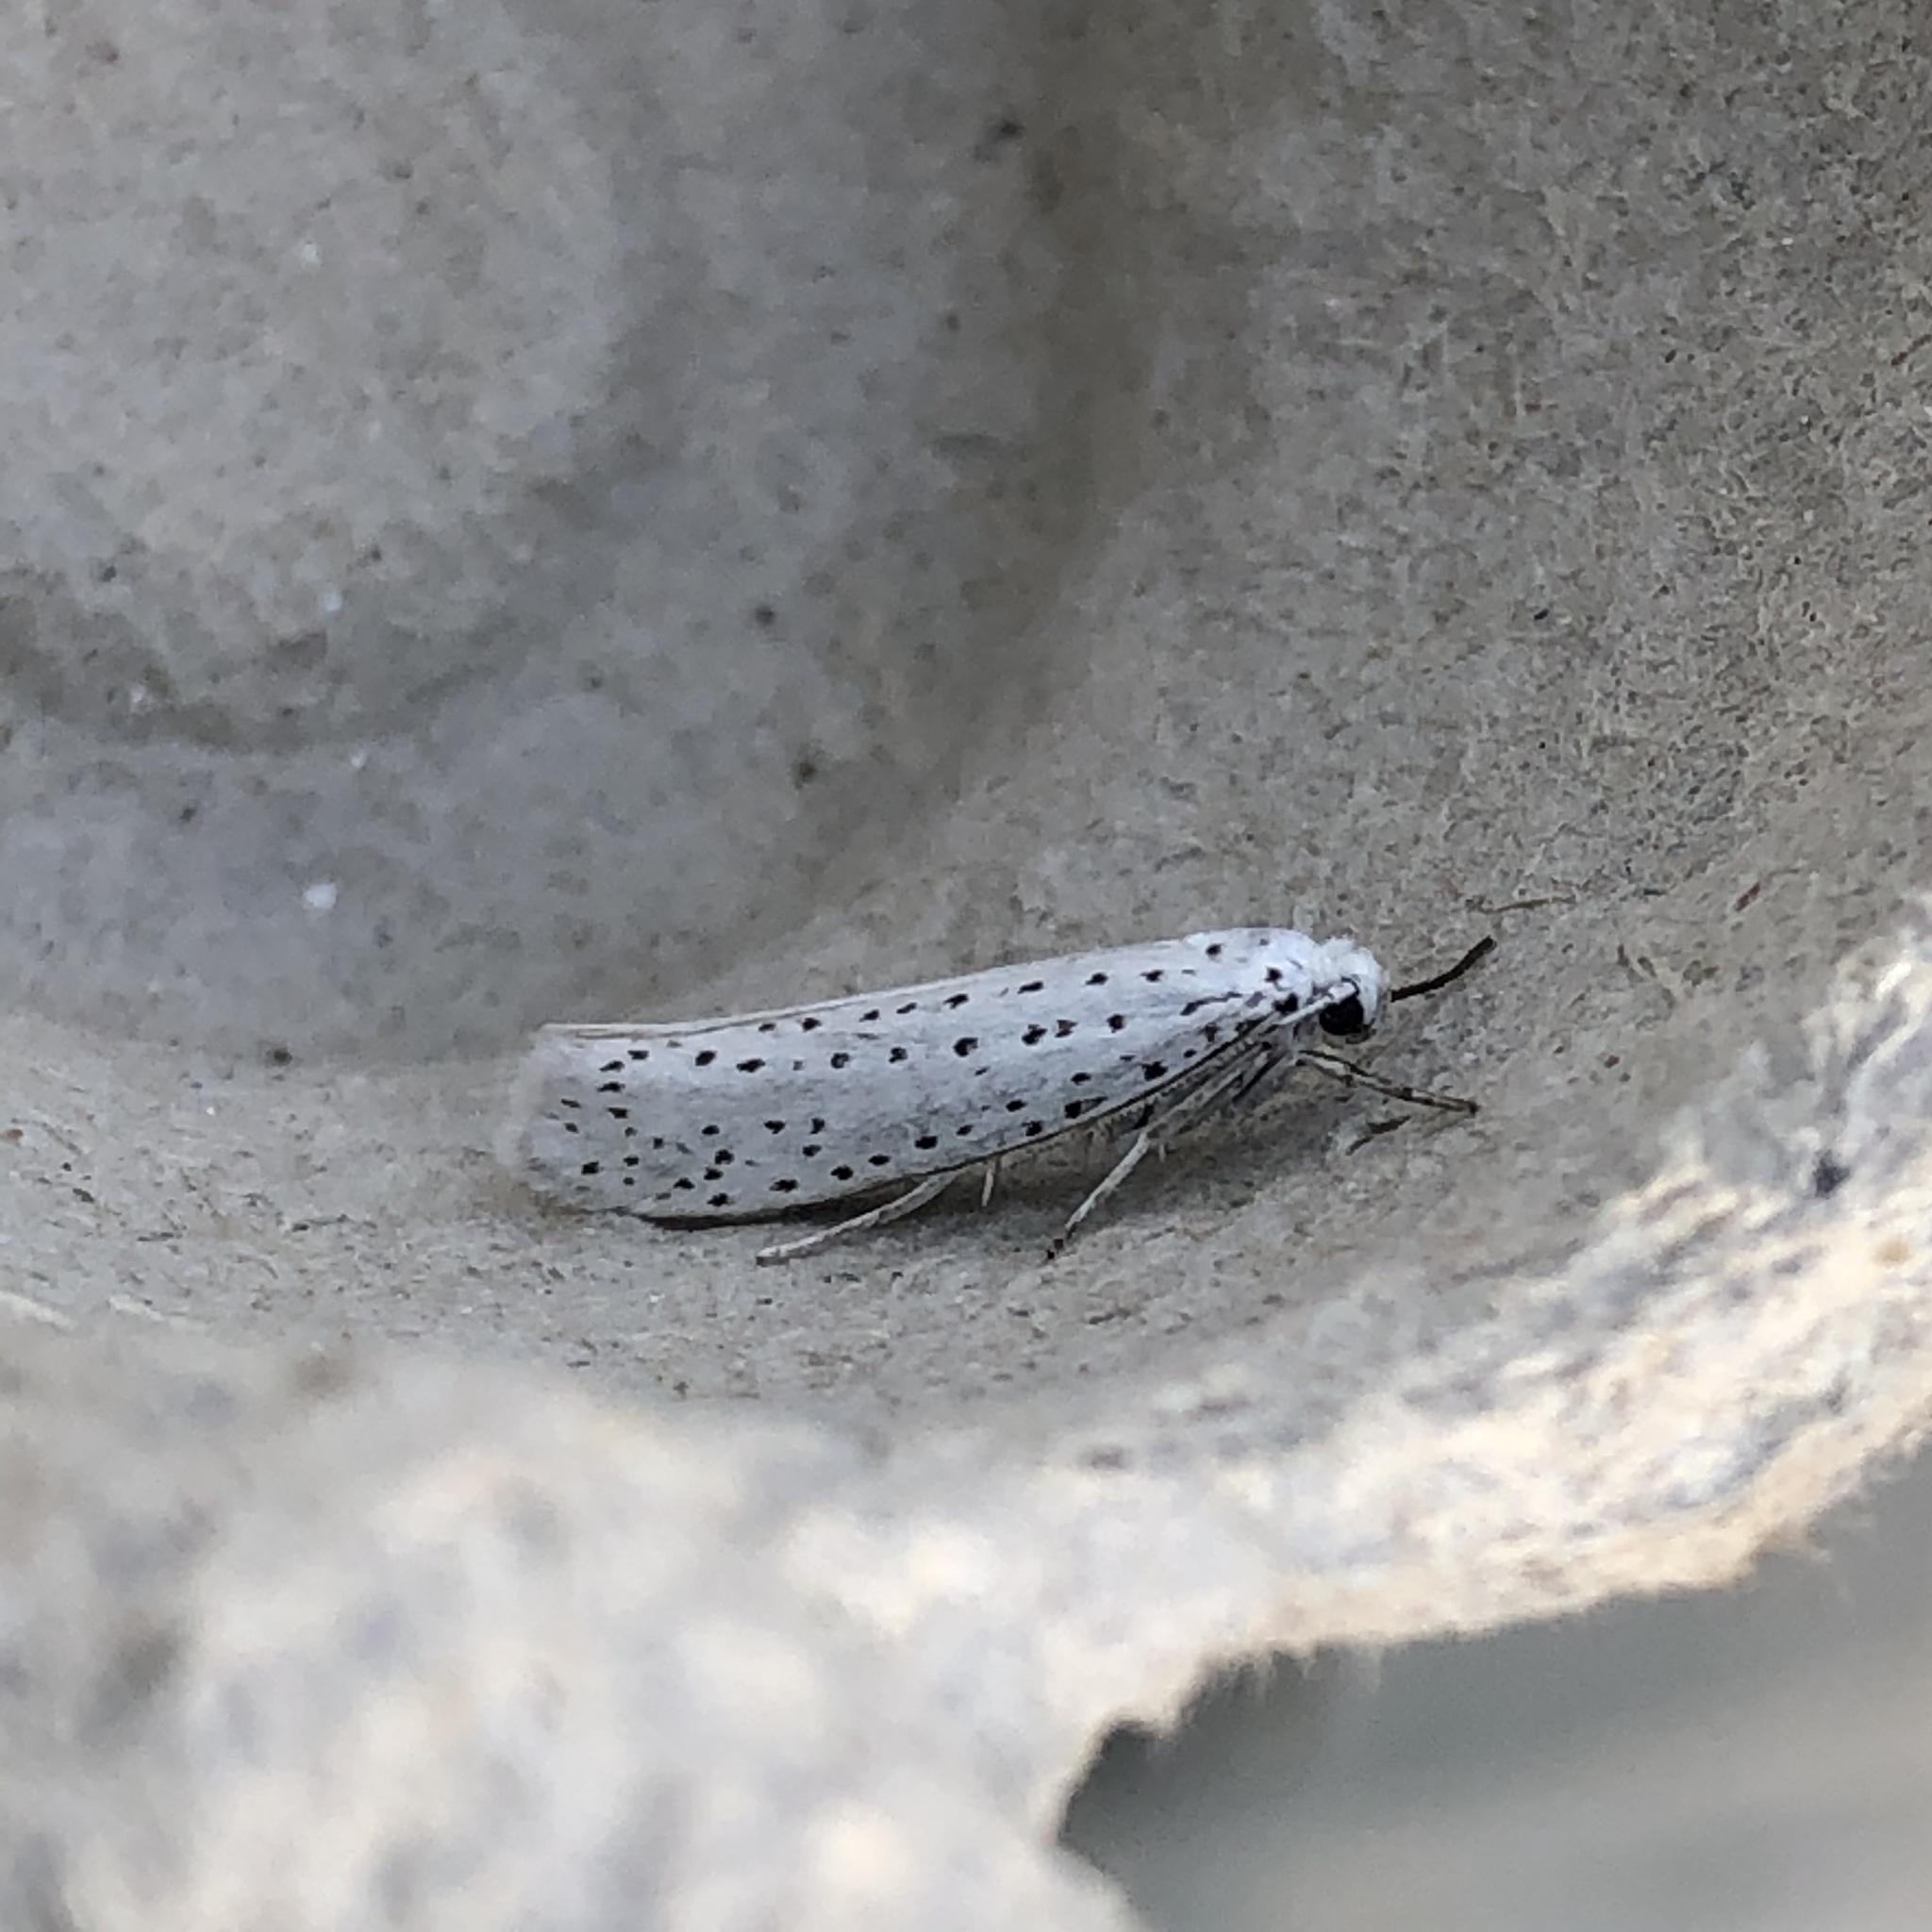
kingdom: Animalia
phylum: Arthropoda
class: Insecta
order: Lepidoptera
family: Yponomeutidae
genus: Yponomeuta
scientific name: Yponomeuta evonymella
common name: Bird-cherry ermine
